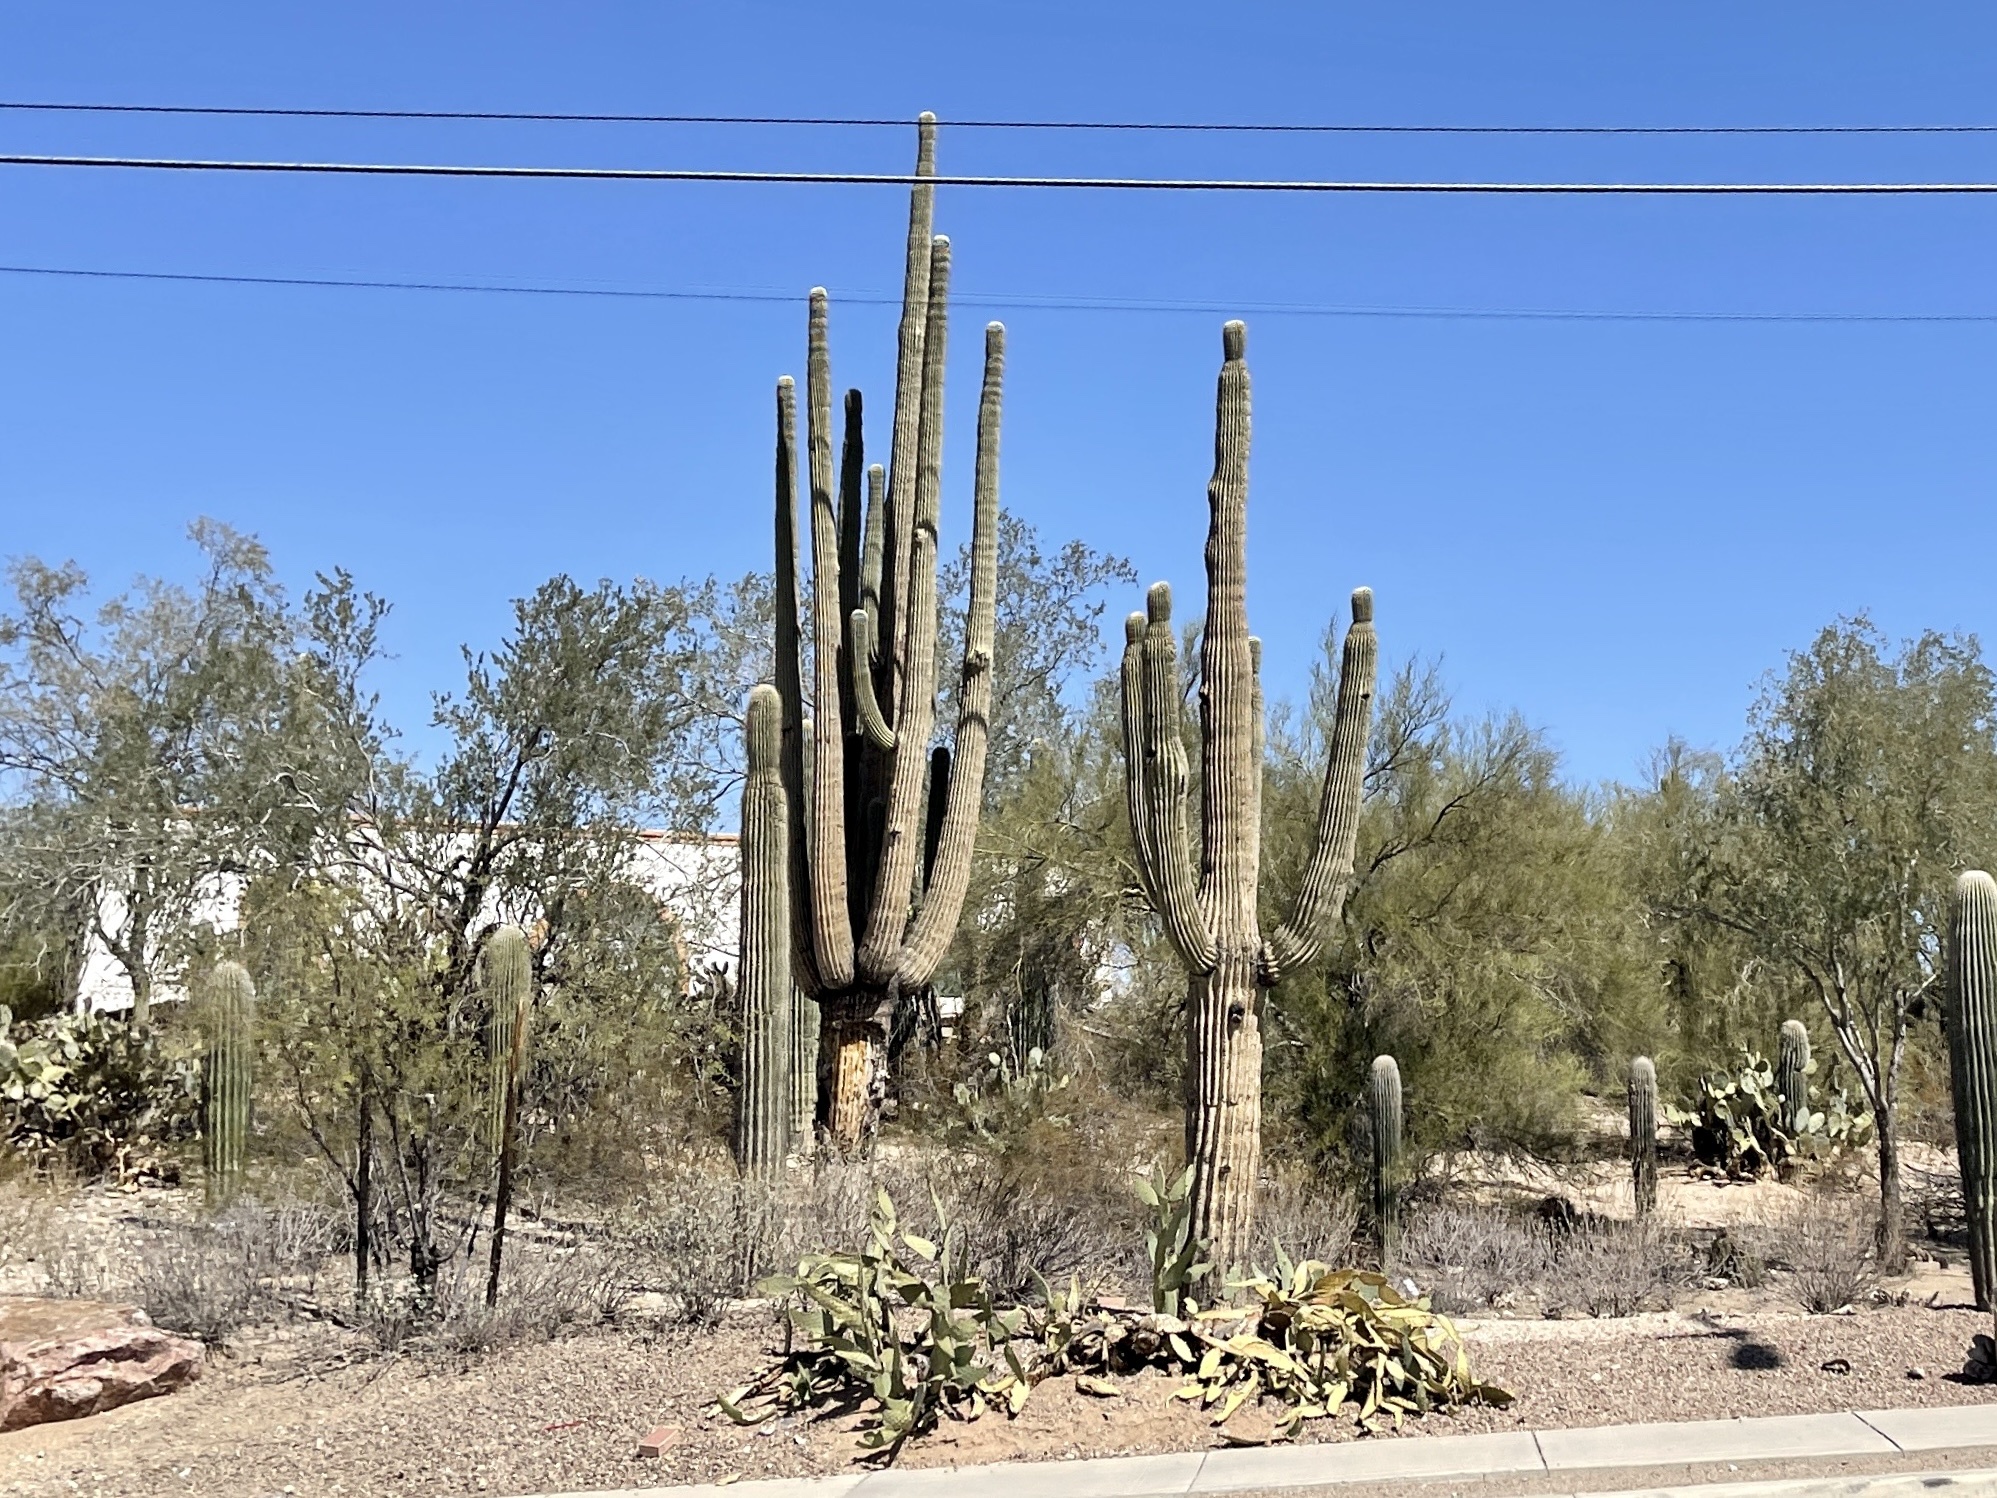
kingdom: Plantae
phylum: Tracheophyta
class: Magnoliopsida
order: Caryophyllales
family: Cactaceae
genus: Carnegiea
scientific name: Carnegiea gigantea
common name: Saguaro
